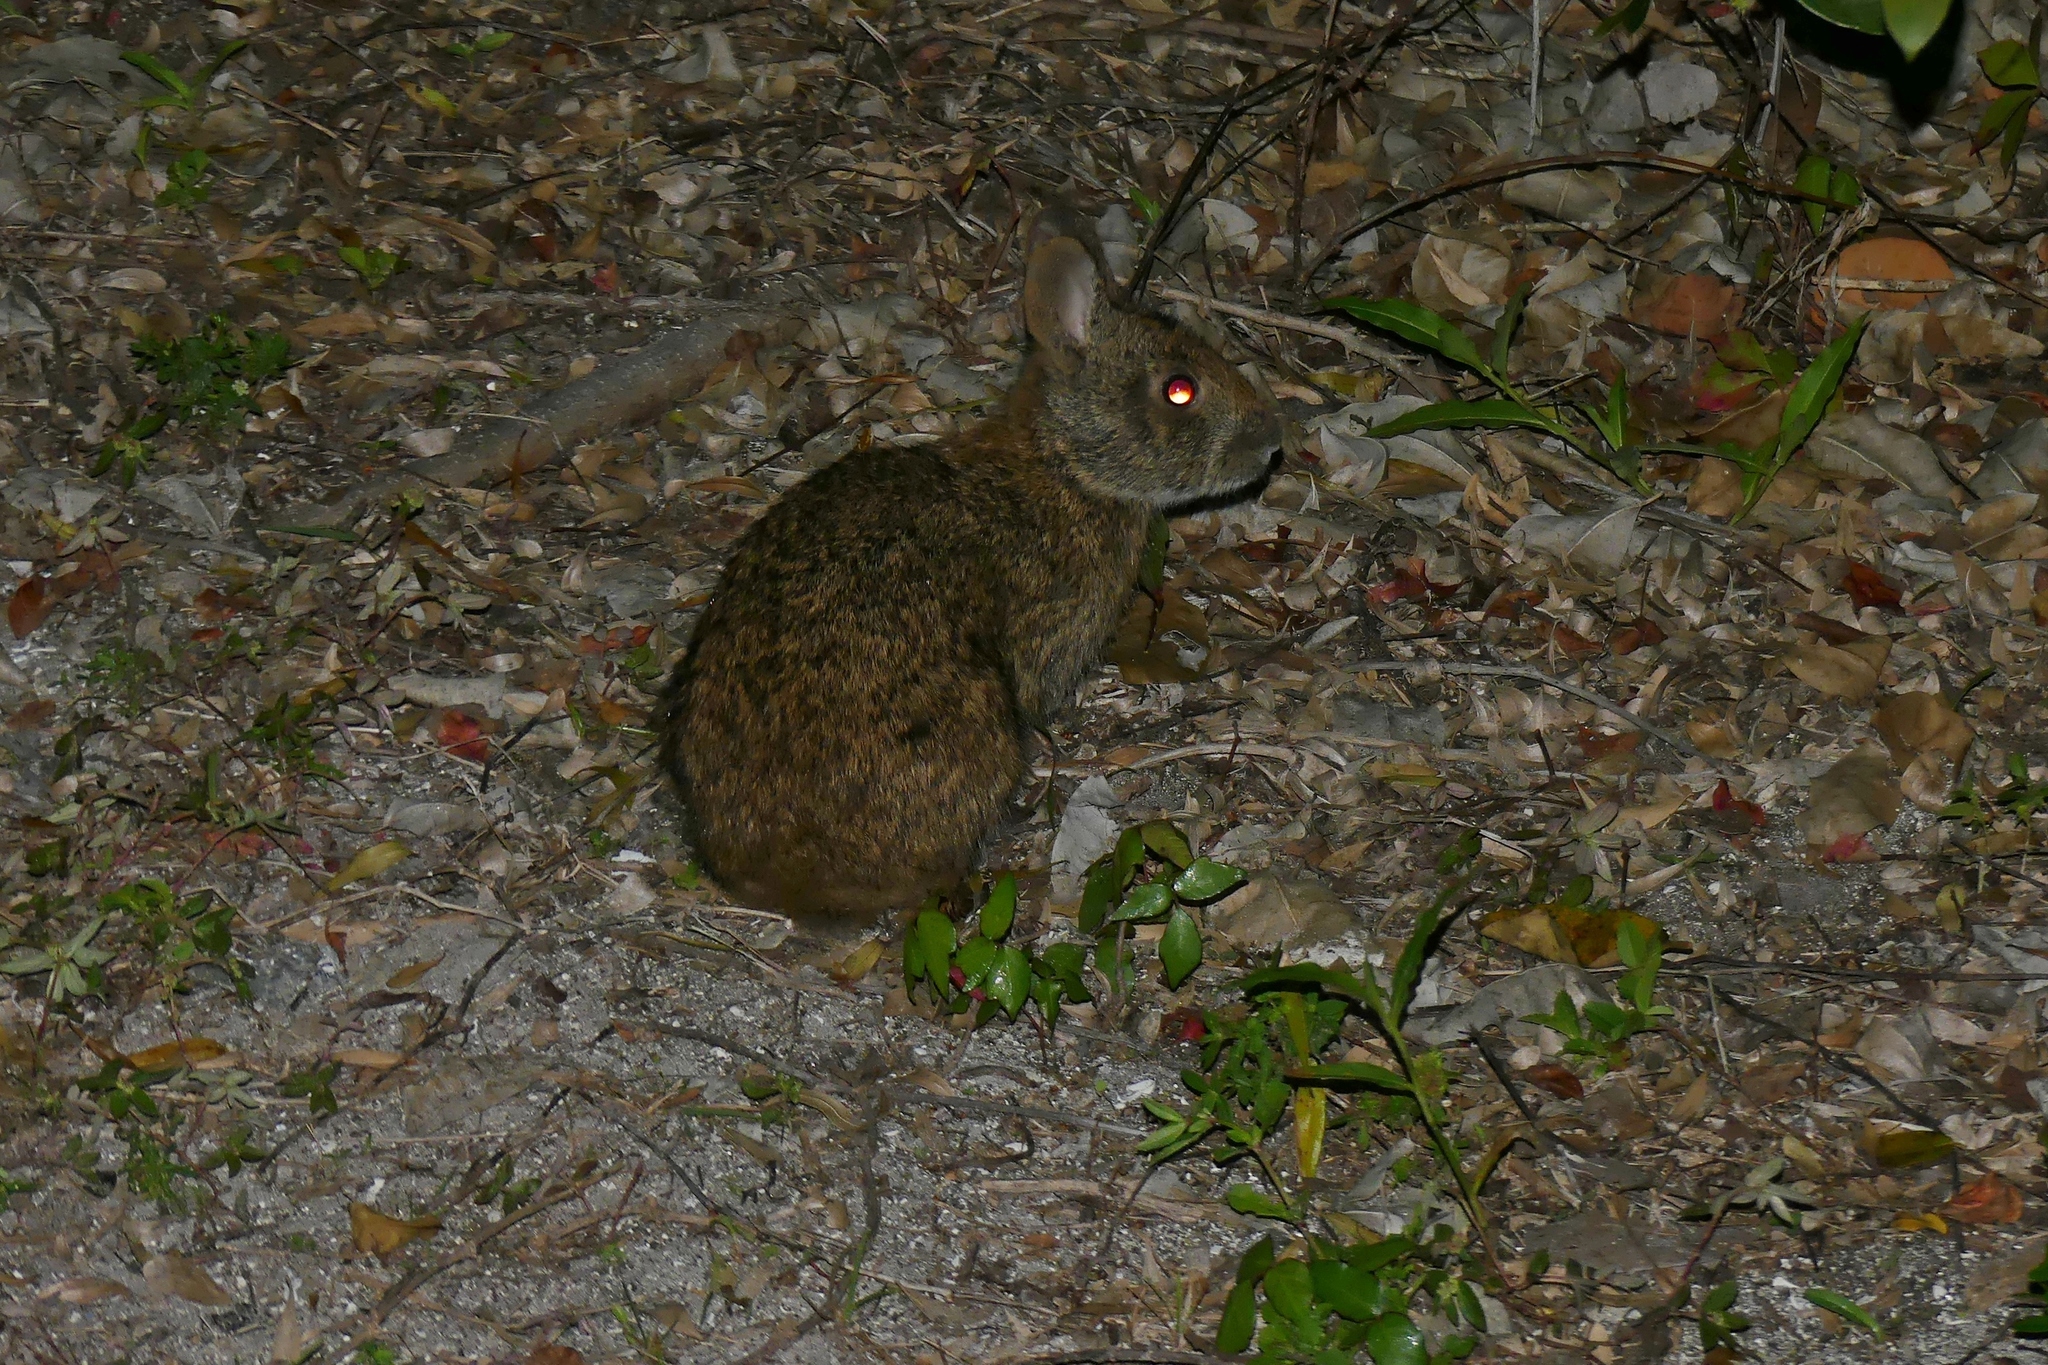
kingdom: Animalia
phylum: Chordata
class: Mammalia
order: Lagomorpha
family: Leporidae
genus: Sylvilagus
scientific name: Sylvilagus palustris
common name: Marsh rabbit
